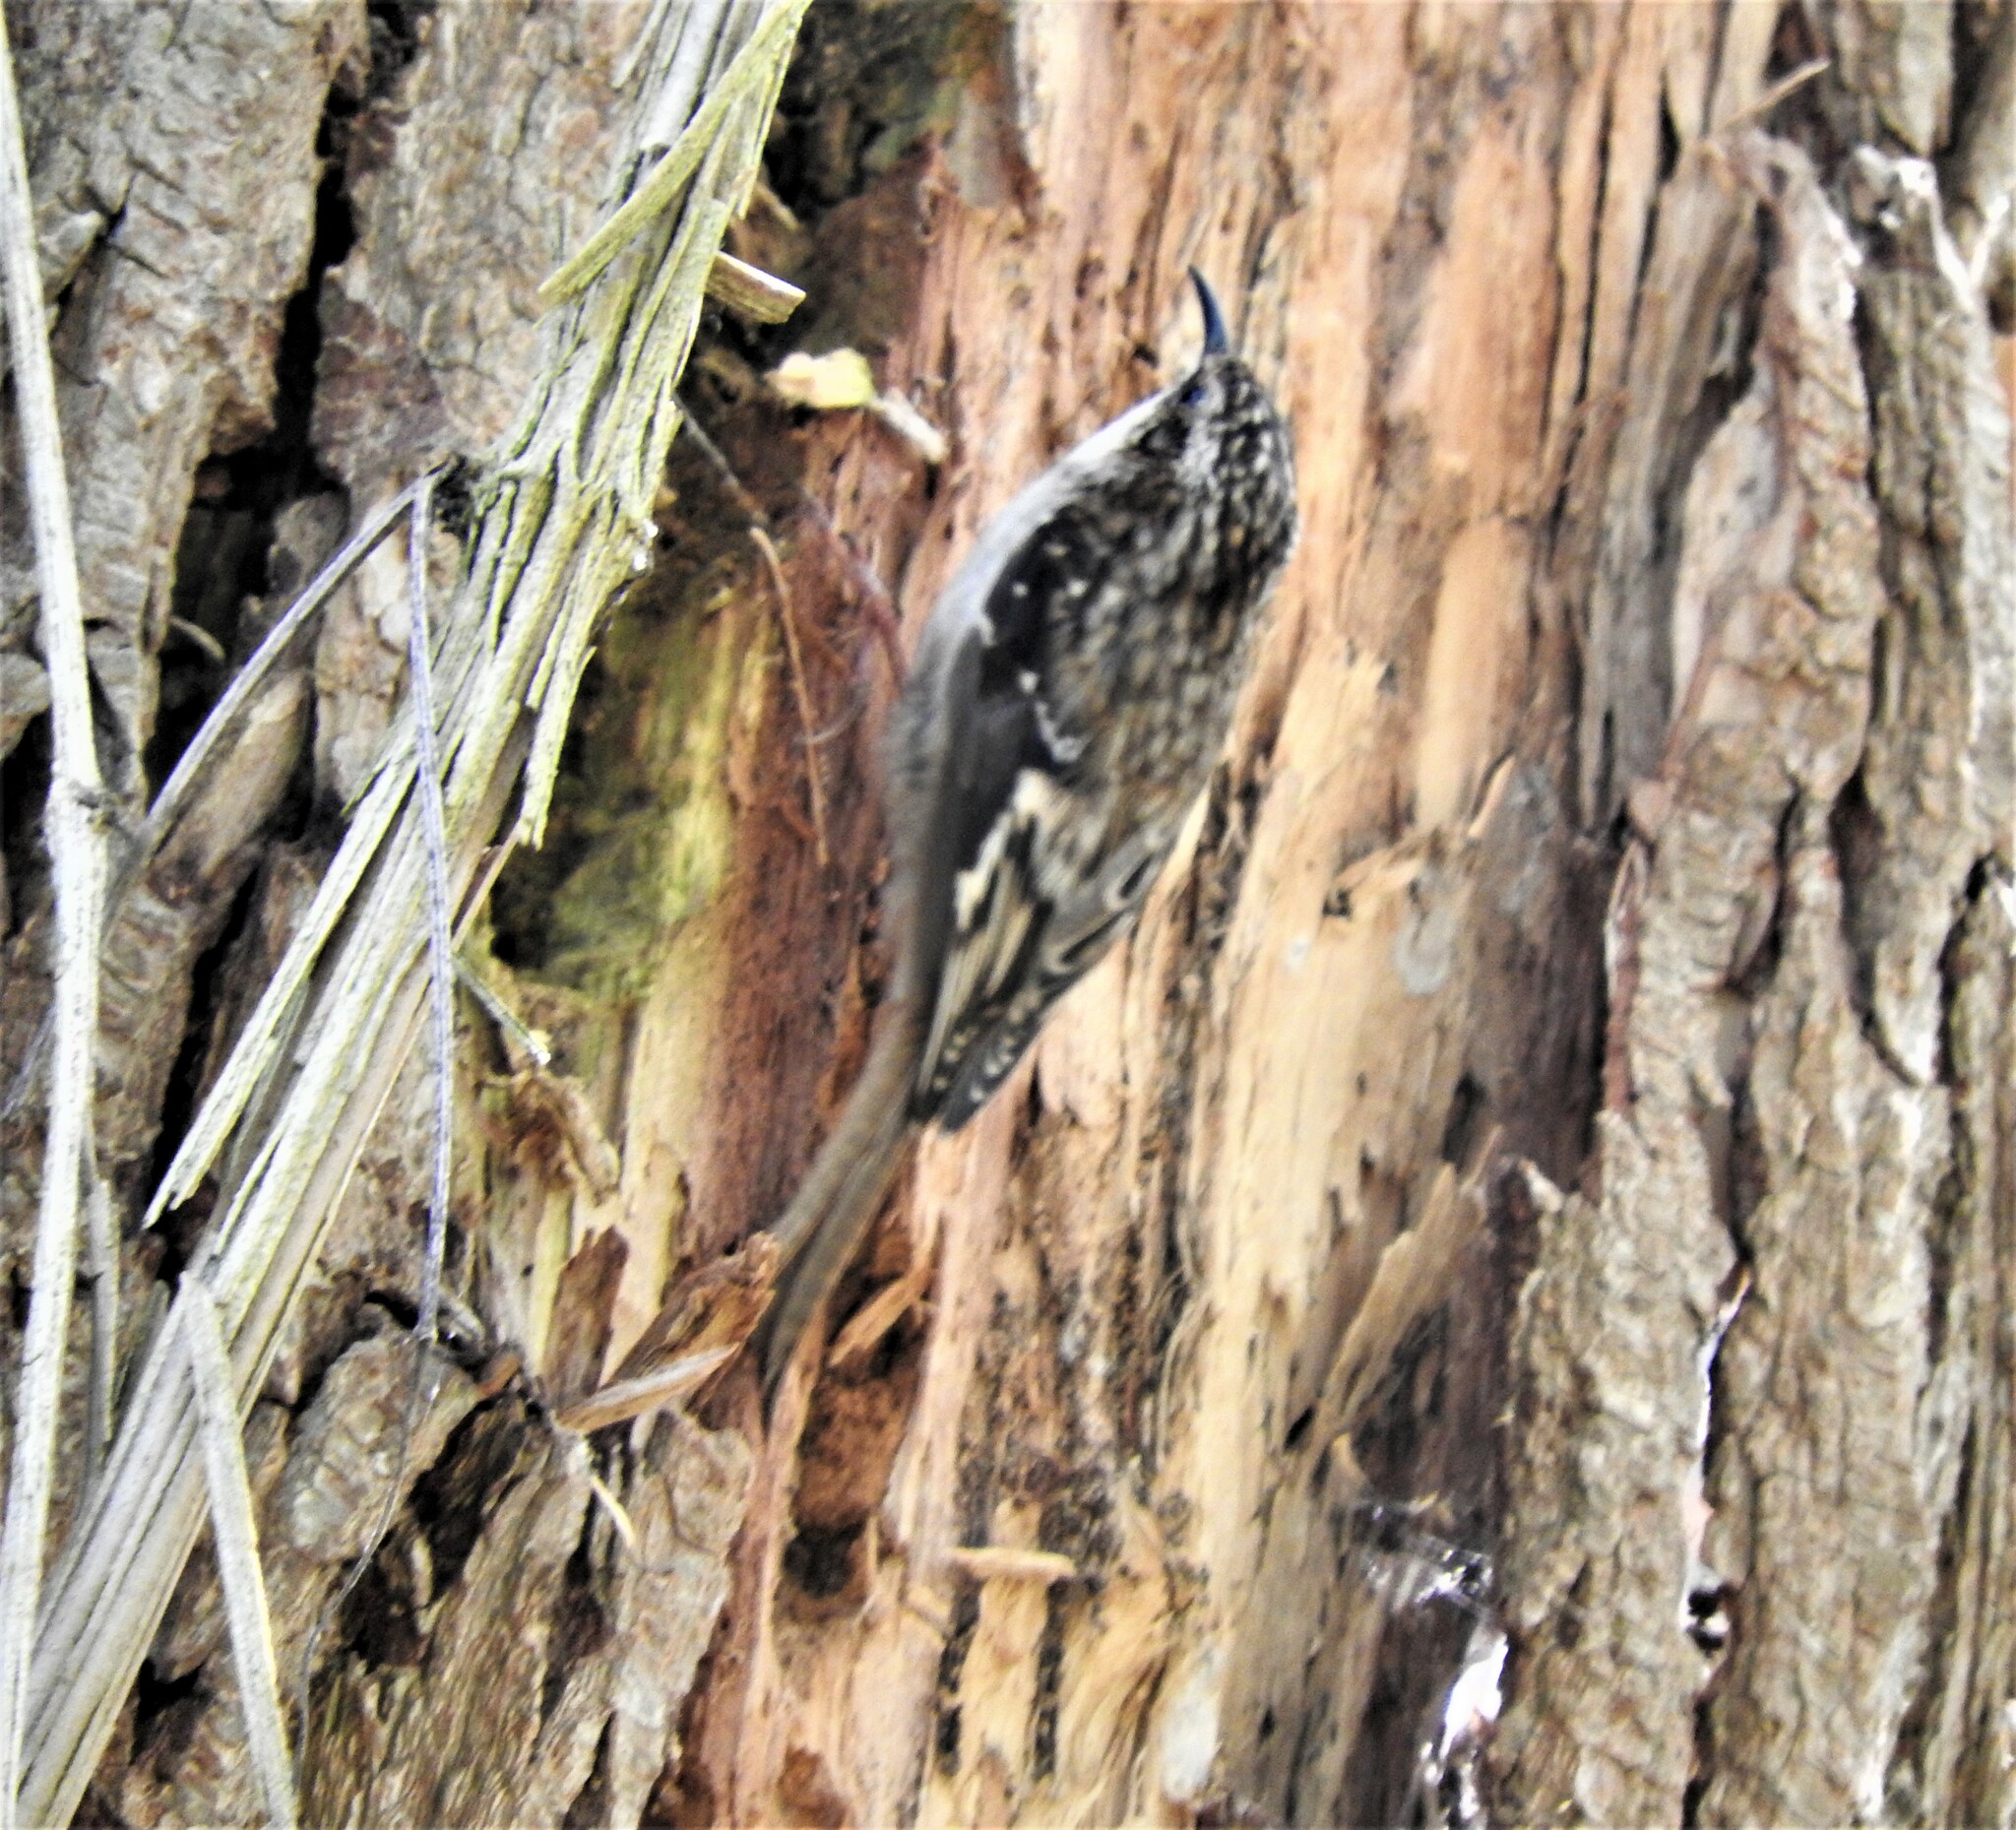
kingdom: Animalia
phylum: Chordata
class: Aves
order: Passeriformes
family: Certhiidae
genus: Certhia
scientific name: Certhia americana
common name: Brown creeper
